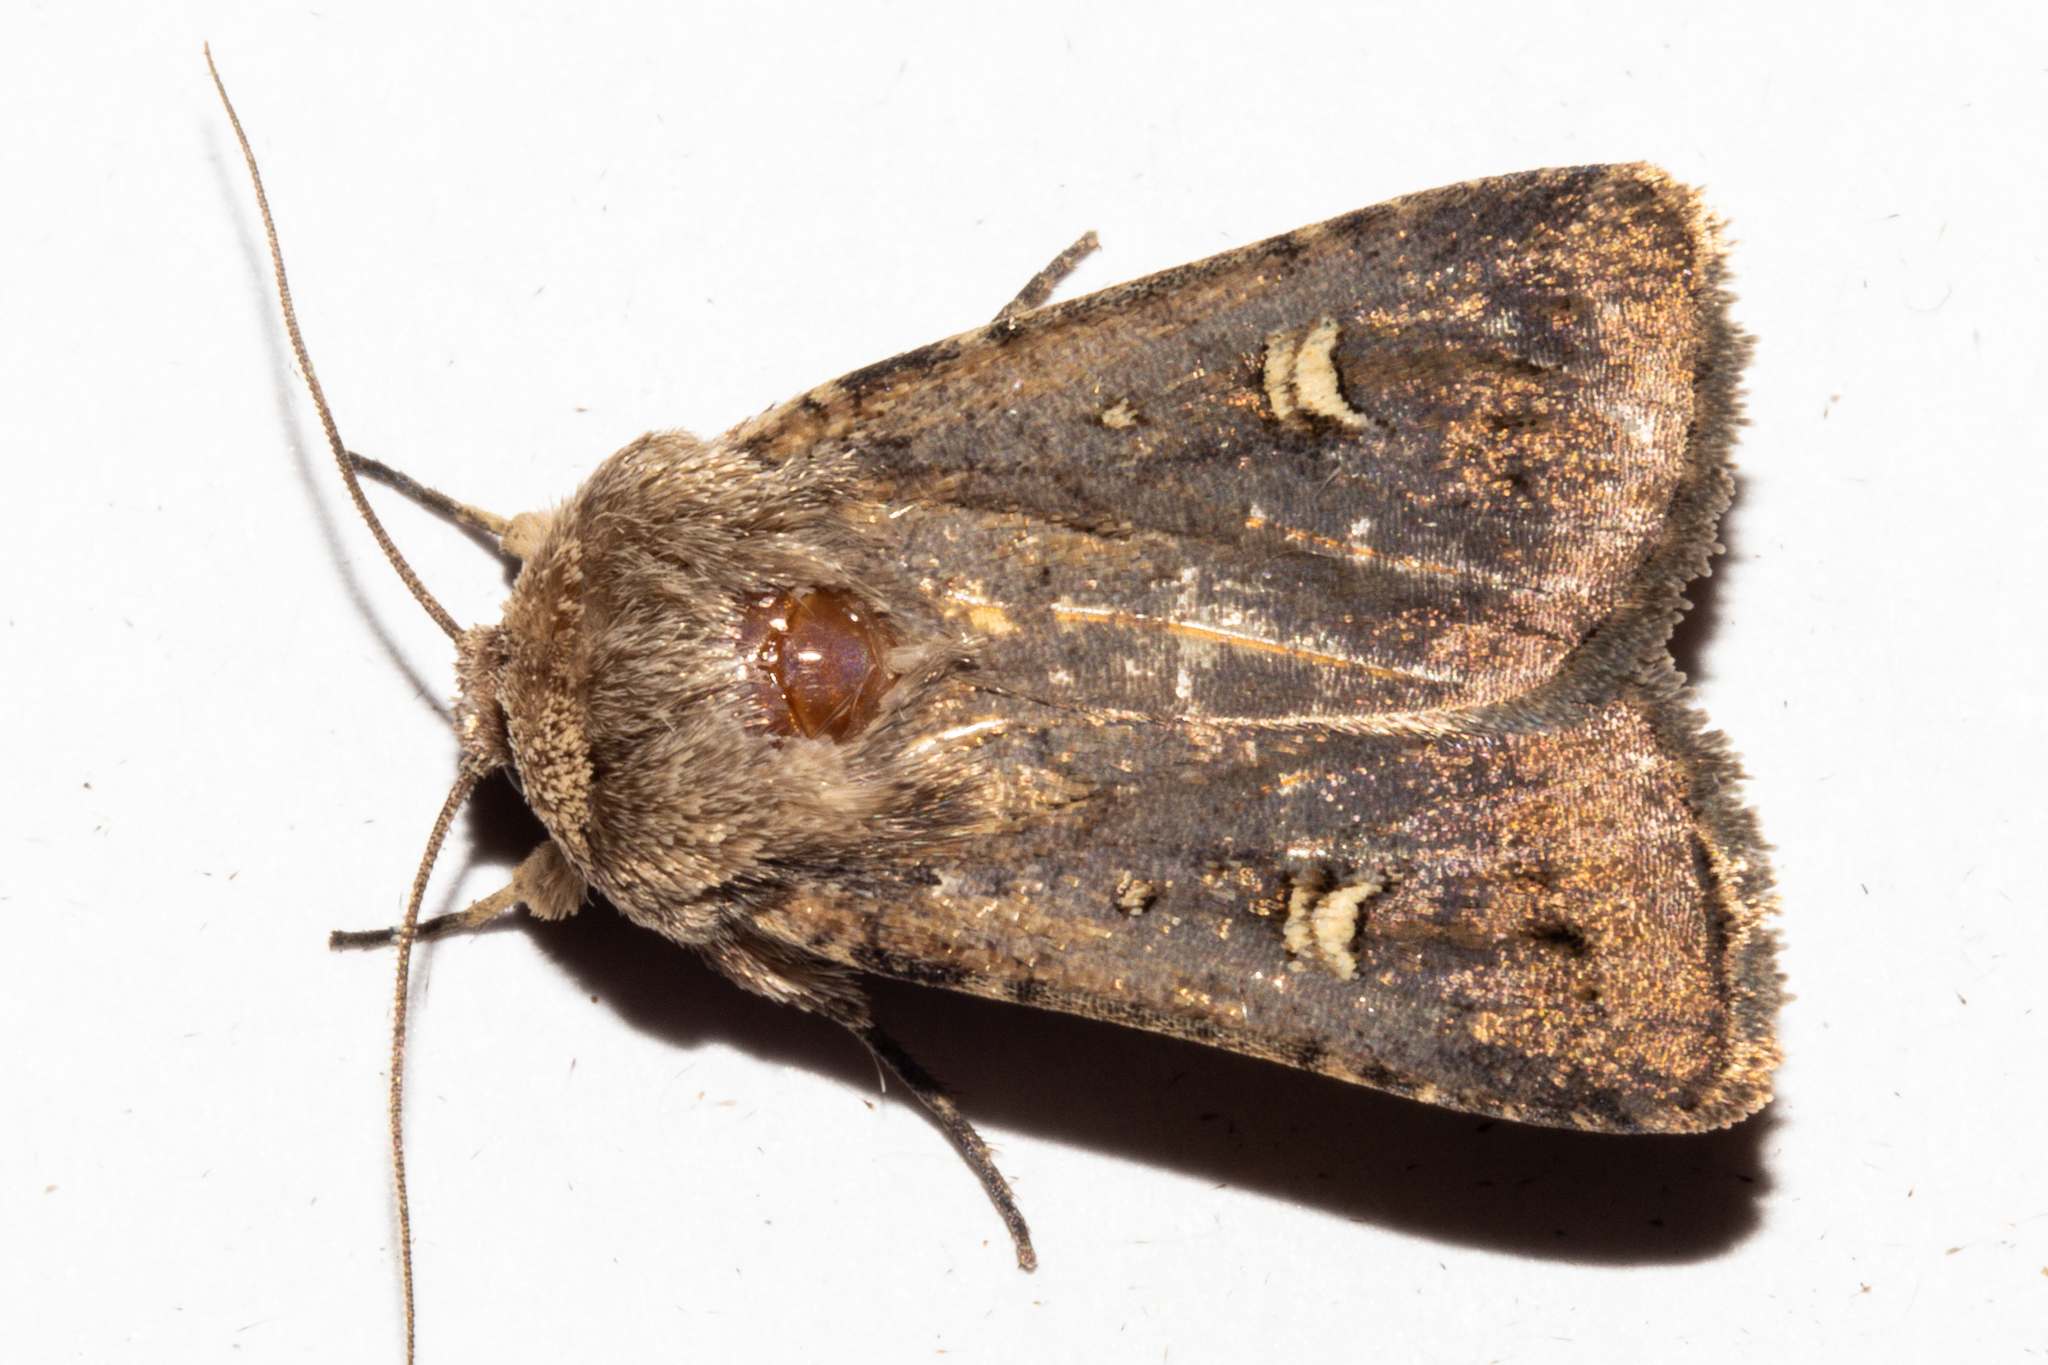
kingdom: Animalia
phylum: Arthropoda
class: Insecta
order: Lepidoptera
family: Noctuidae
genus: Proteuxoa
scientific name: Proteuxoa tetronycha
